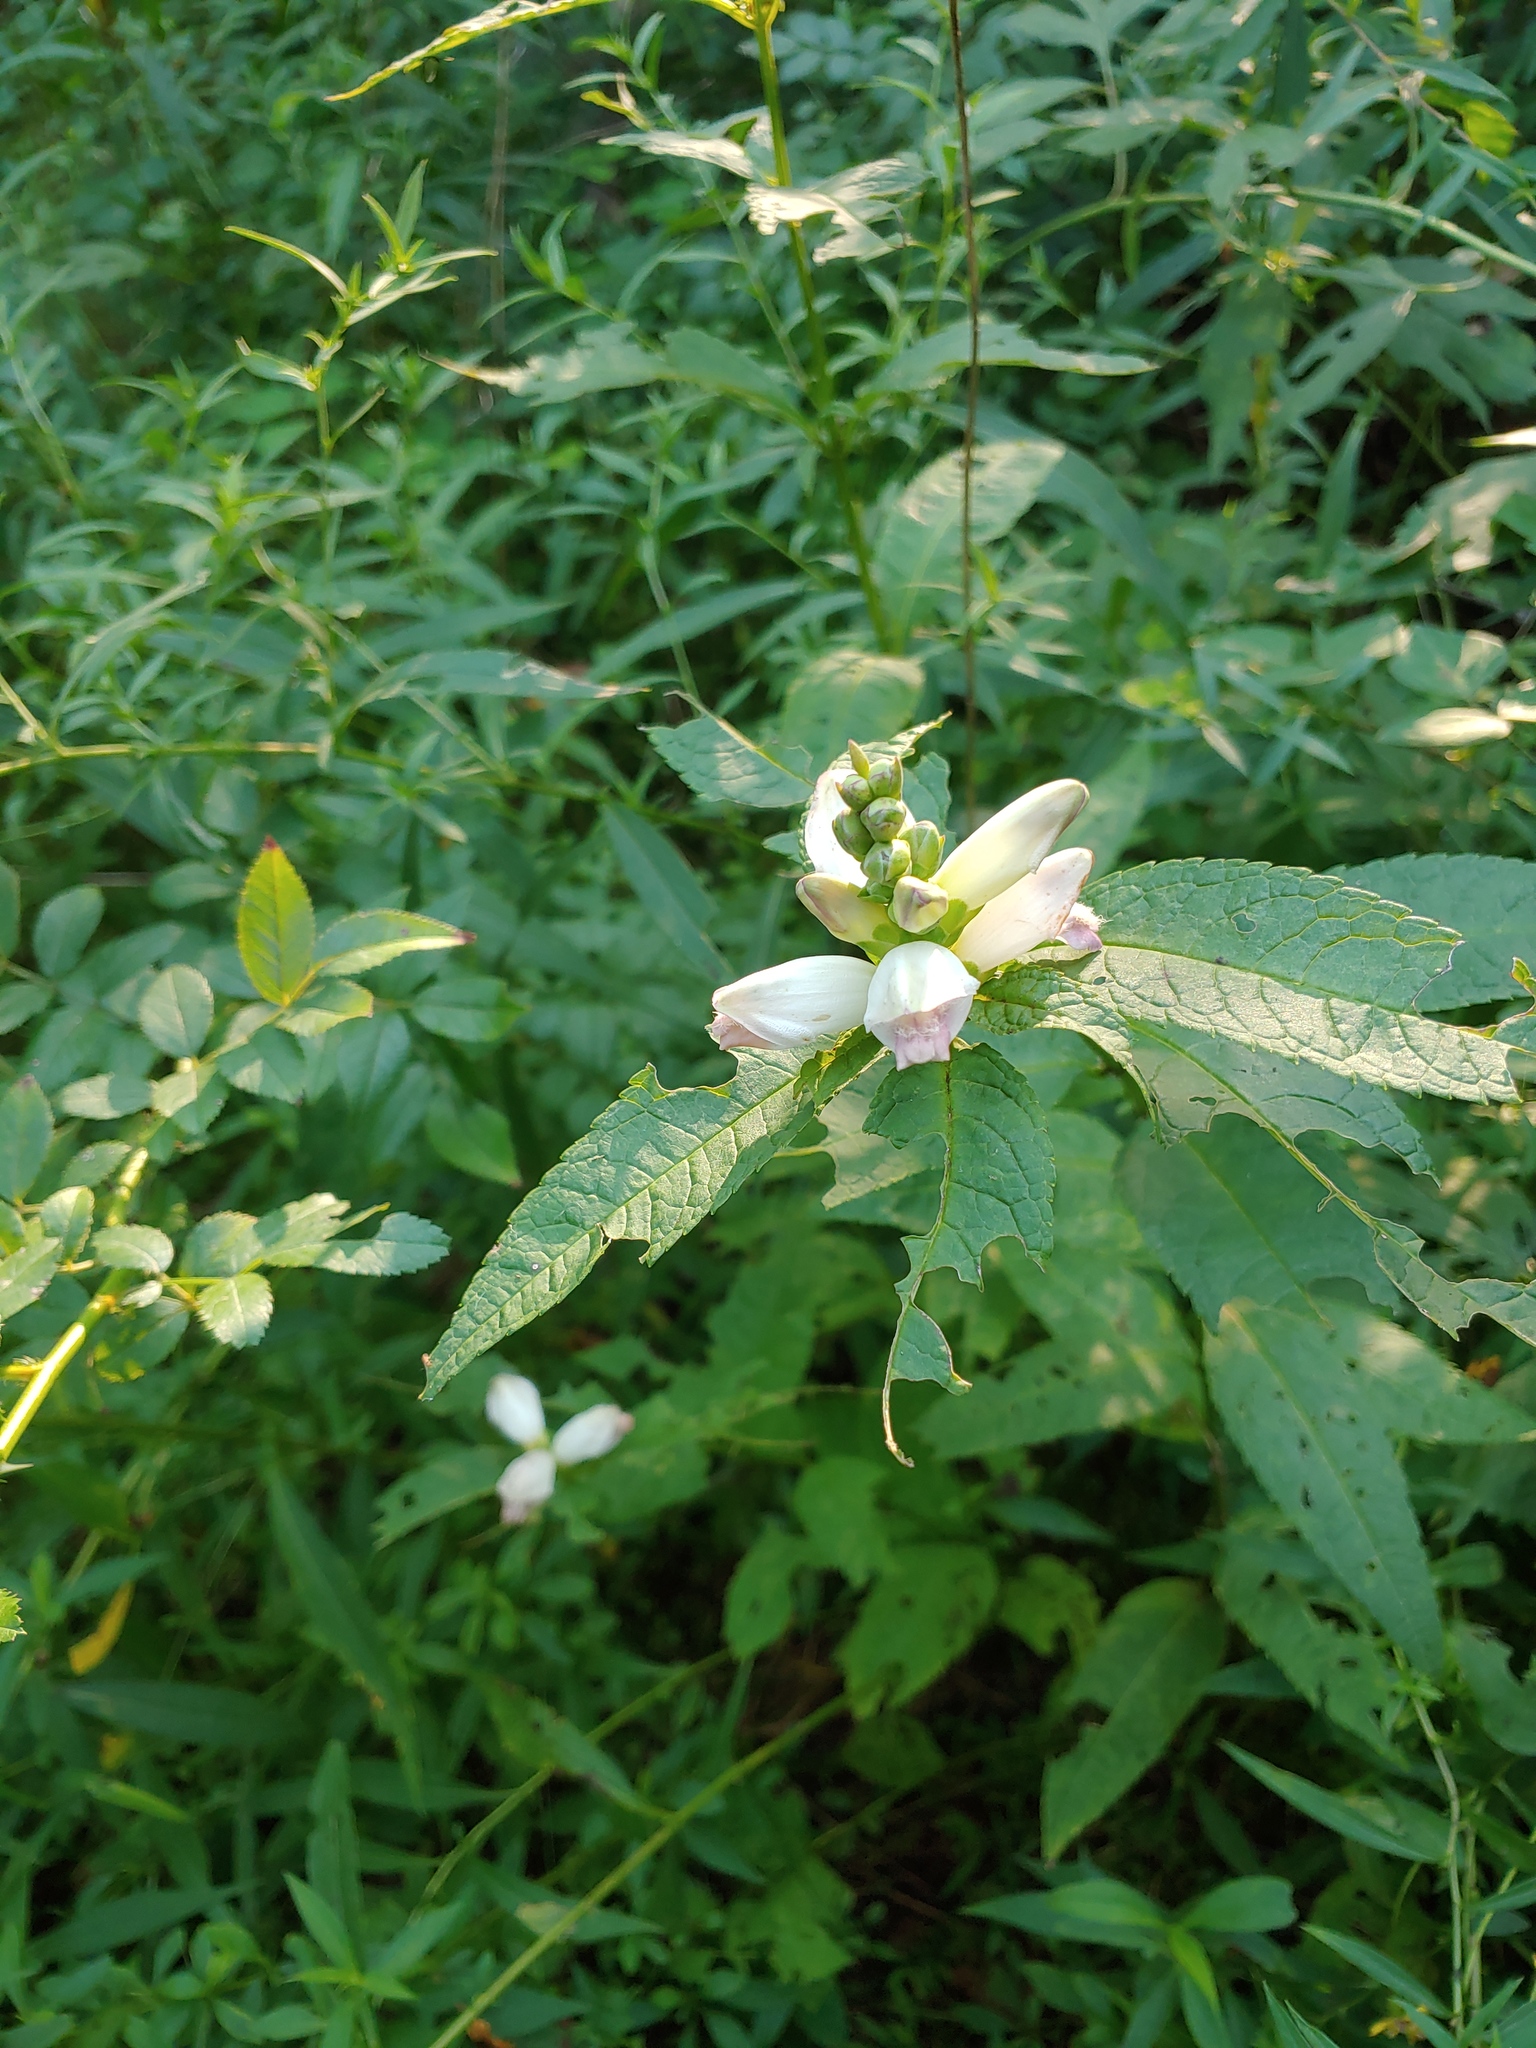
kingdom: Plantae
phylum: Tracheophyta
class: Magnoliopsida
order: Lamiales
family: Plantaginaceae
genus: Chelone
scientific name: Chelone glabra
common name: Snakehead
